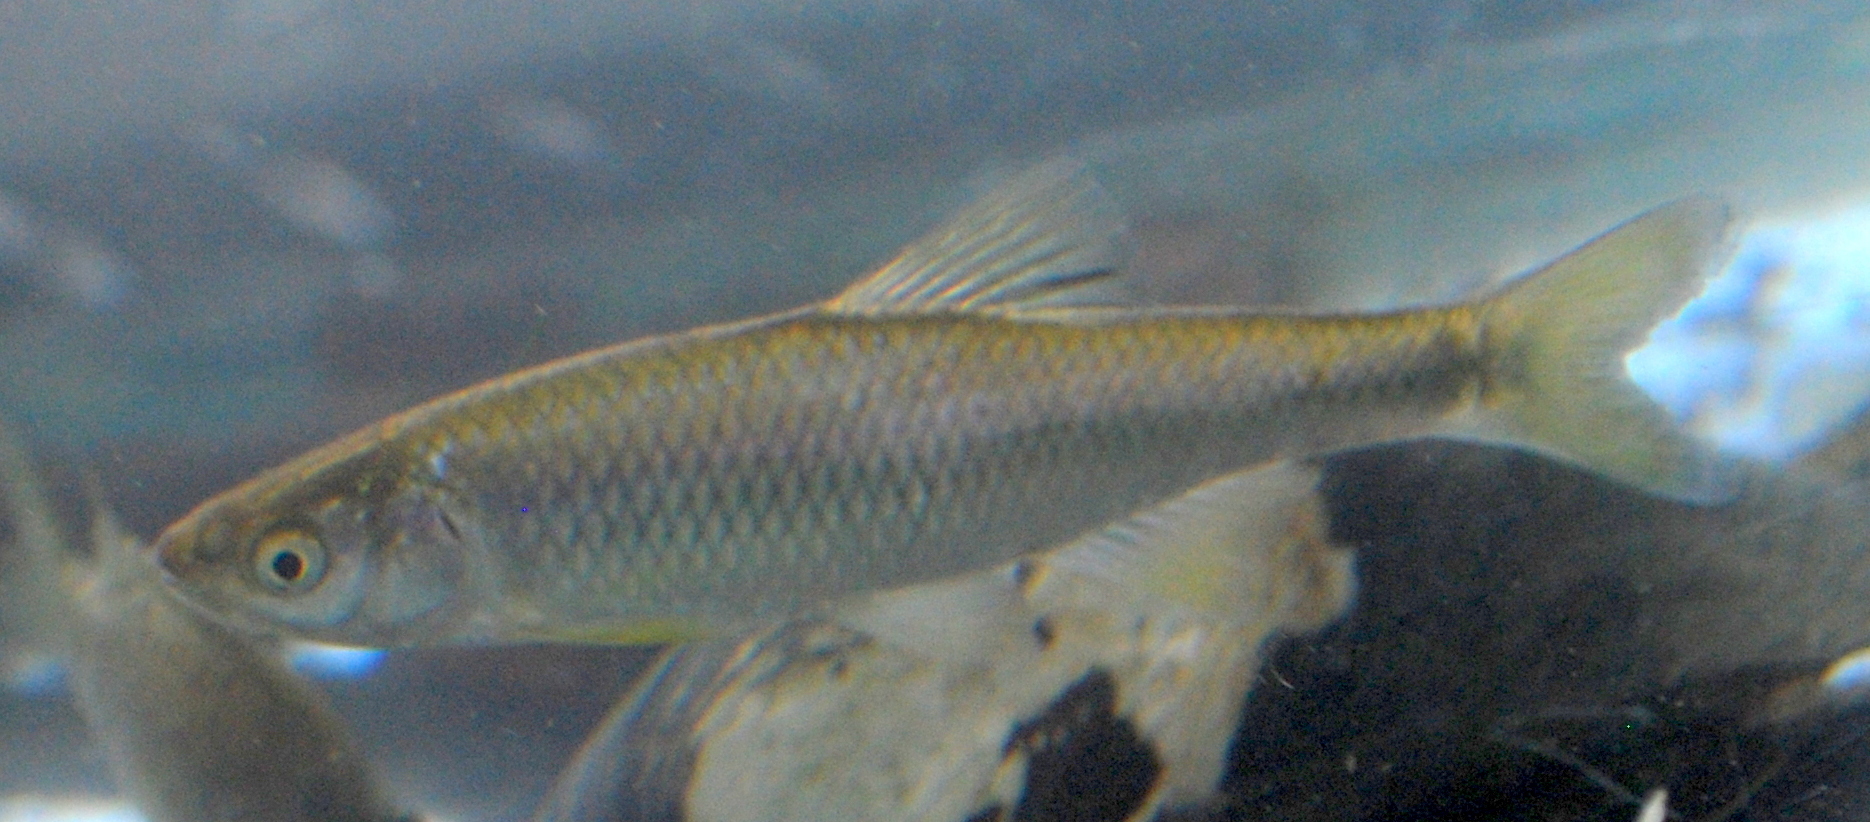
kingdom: Animalia
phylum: Chordata
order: Cypriniformes
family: Cyprinidae
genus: Cyprinella
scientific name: Cyprinella spiloptera
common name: Spotfin shiner
